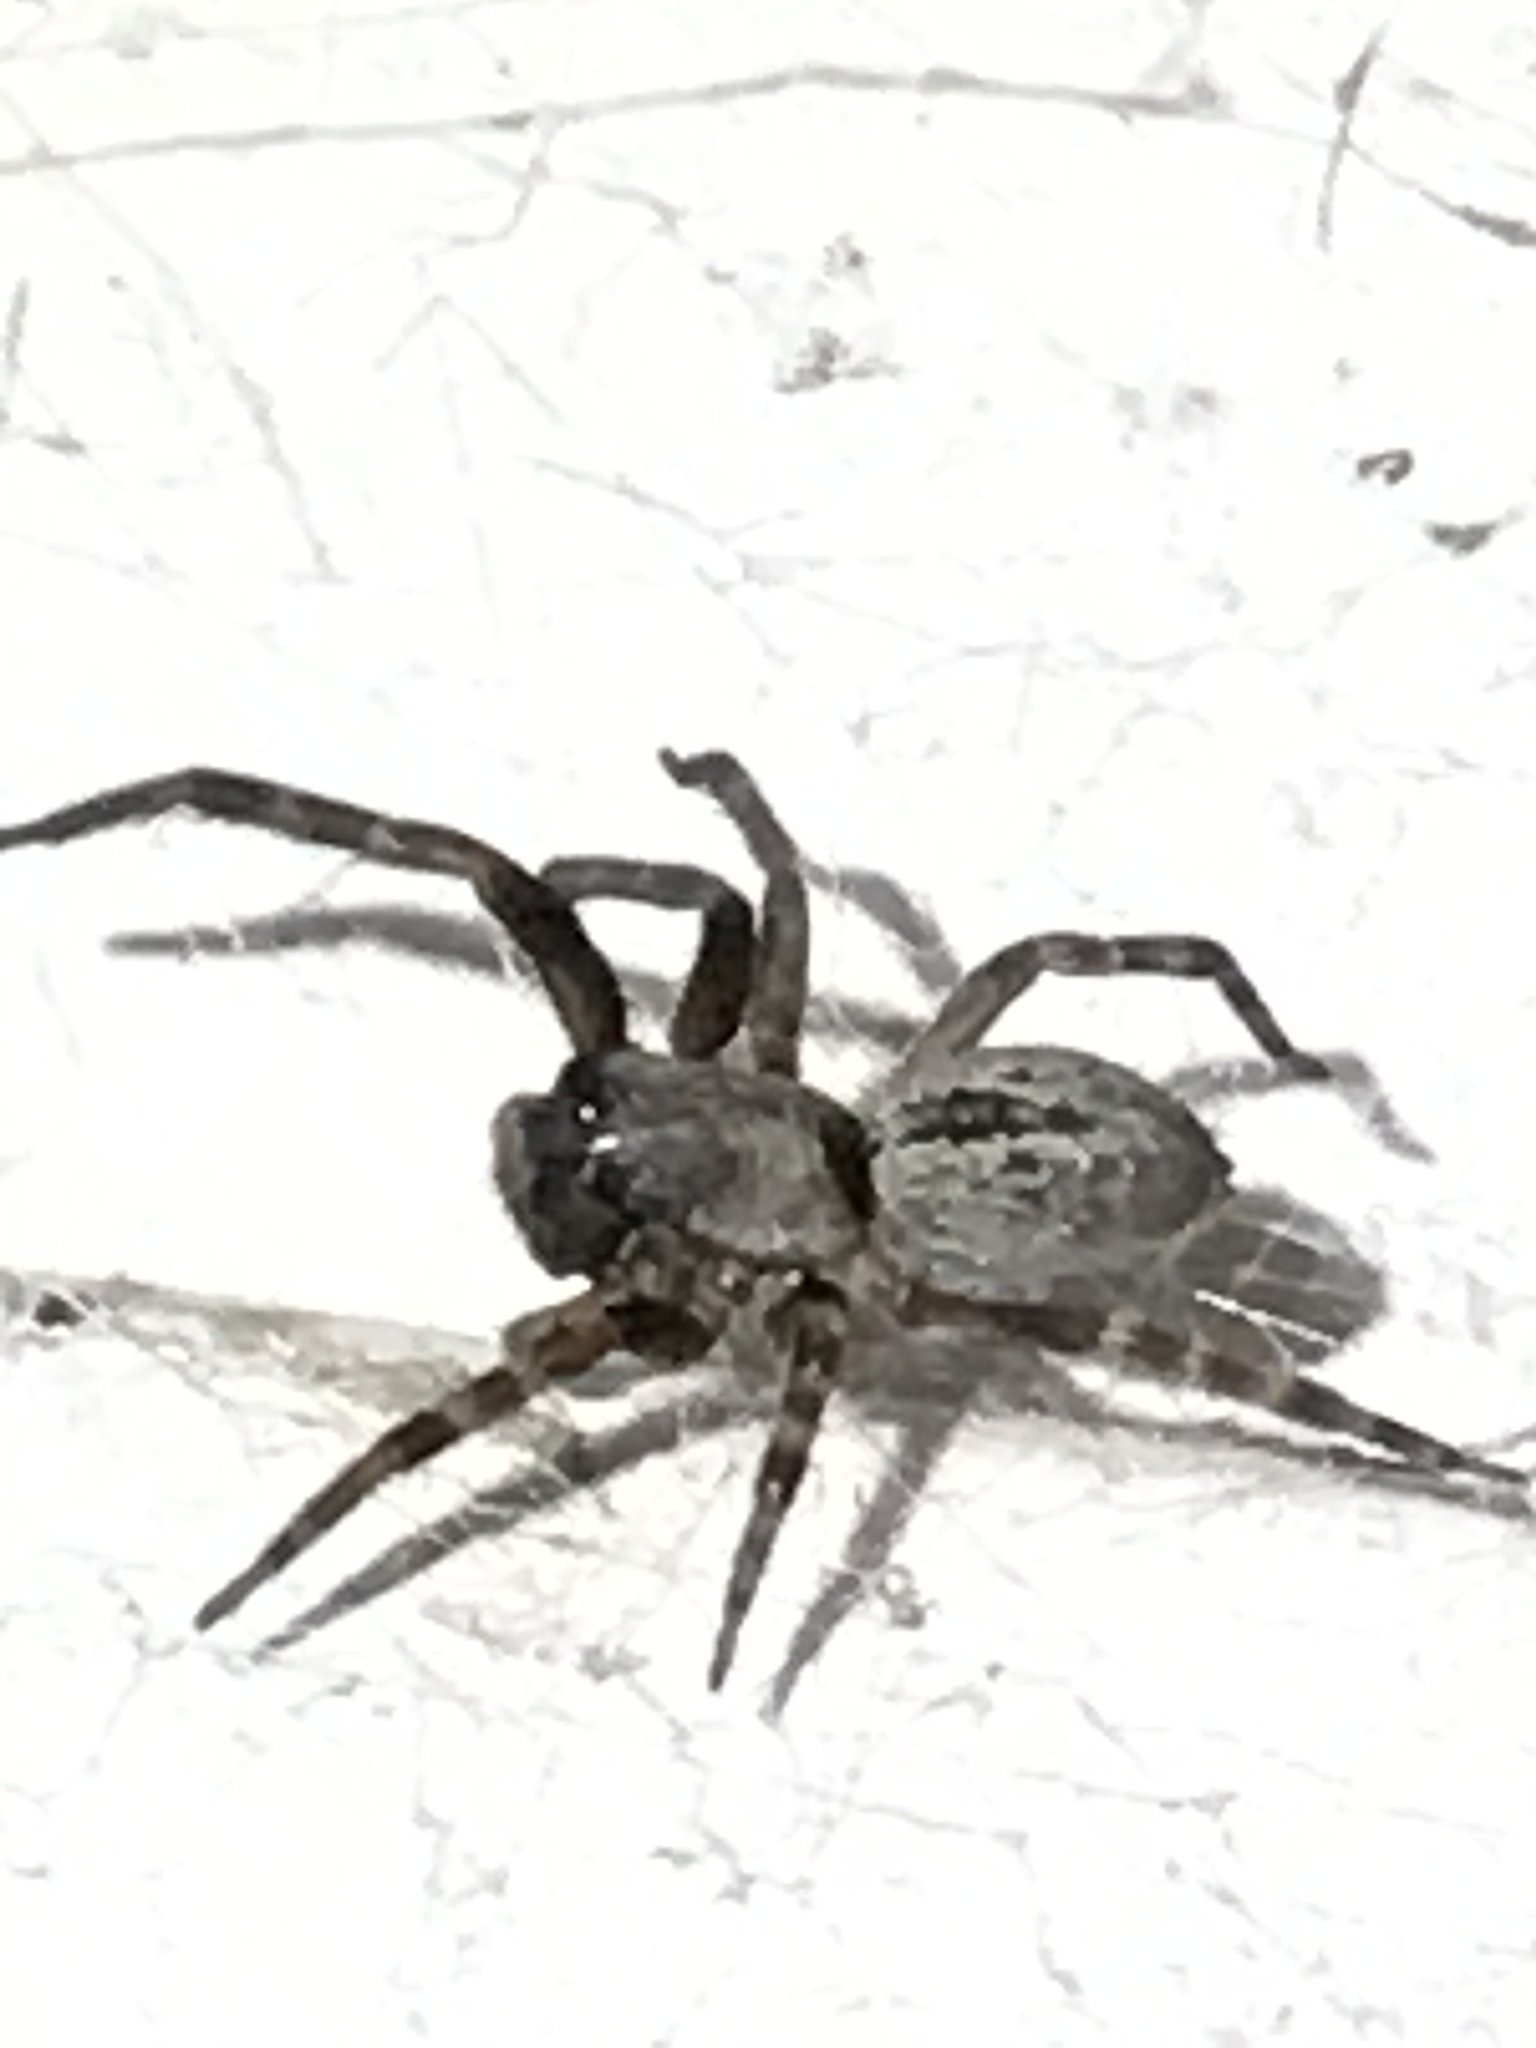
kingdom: Animalia
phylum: Arthropoda
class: Arachnida
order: Araneae
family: Desidae
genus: Badumna
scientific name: Badumna longinqua
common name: Gray house spider
